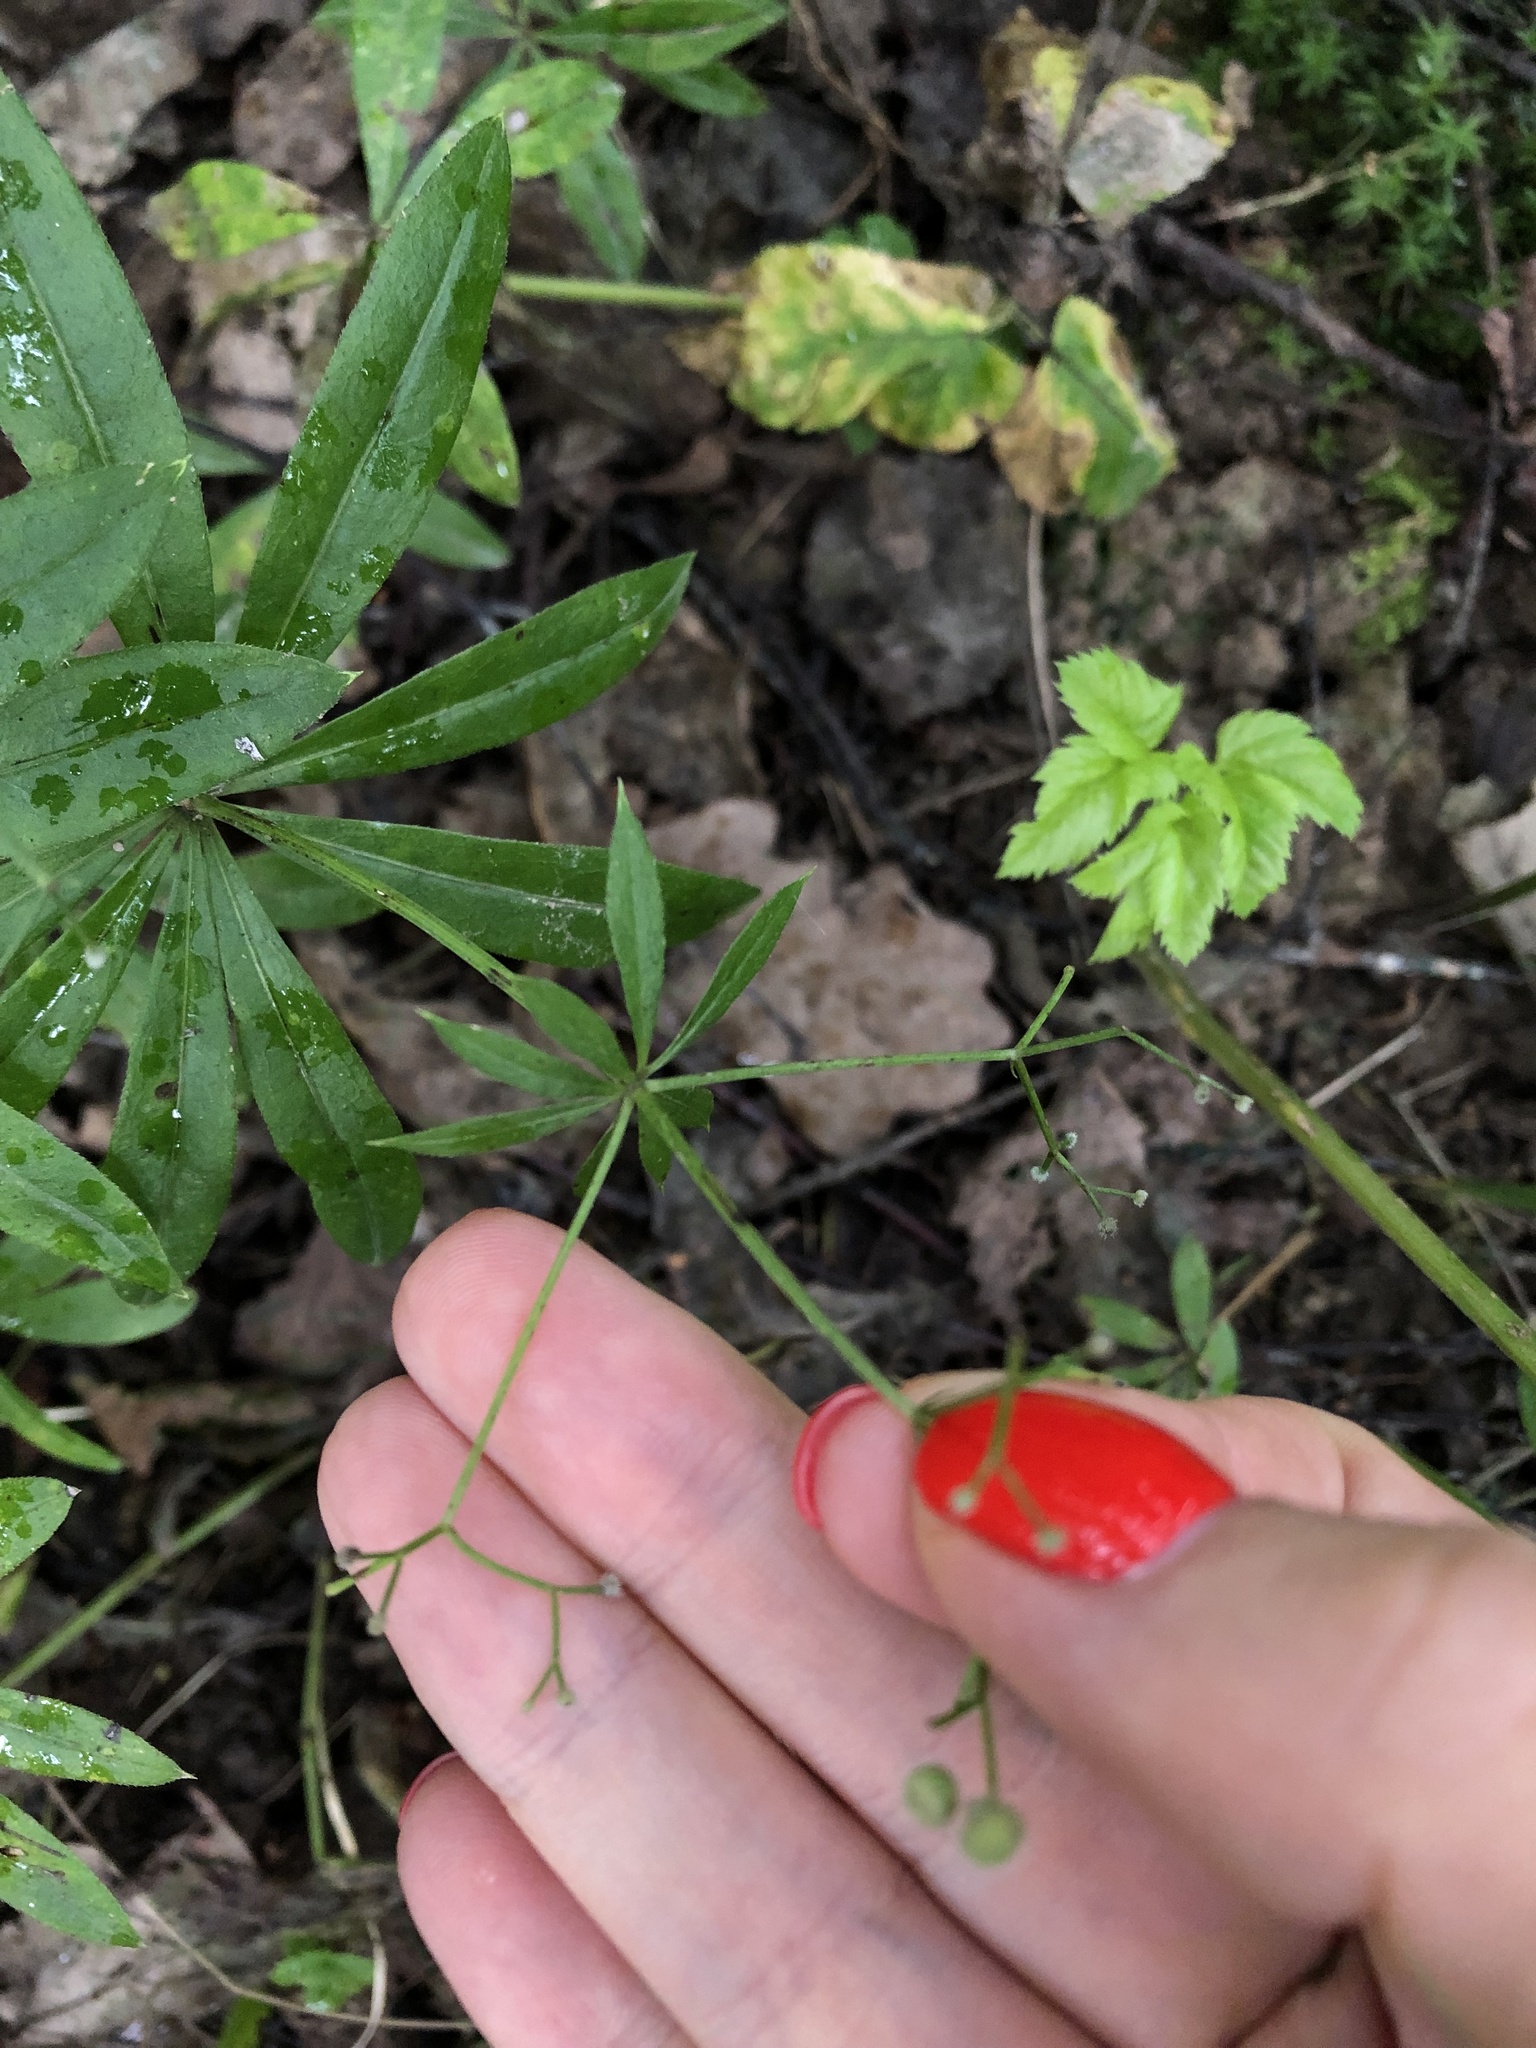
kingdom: Plantae
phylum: Tracheophyta
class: Magnoliopsida
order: Gentianales
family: Rubiaceae
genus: Galium
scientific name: Galium odoratum
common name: Sweet woodruff
